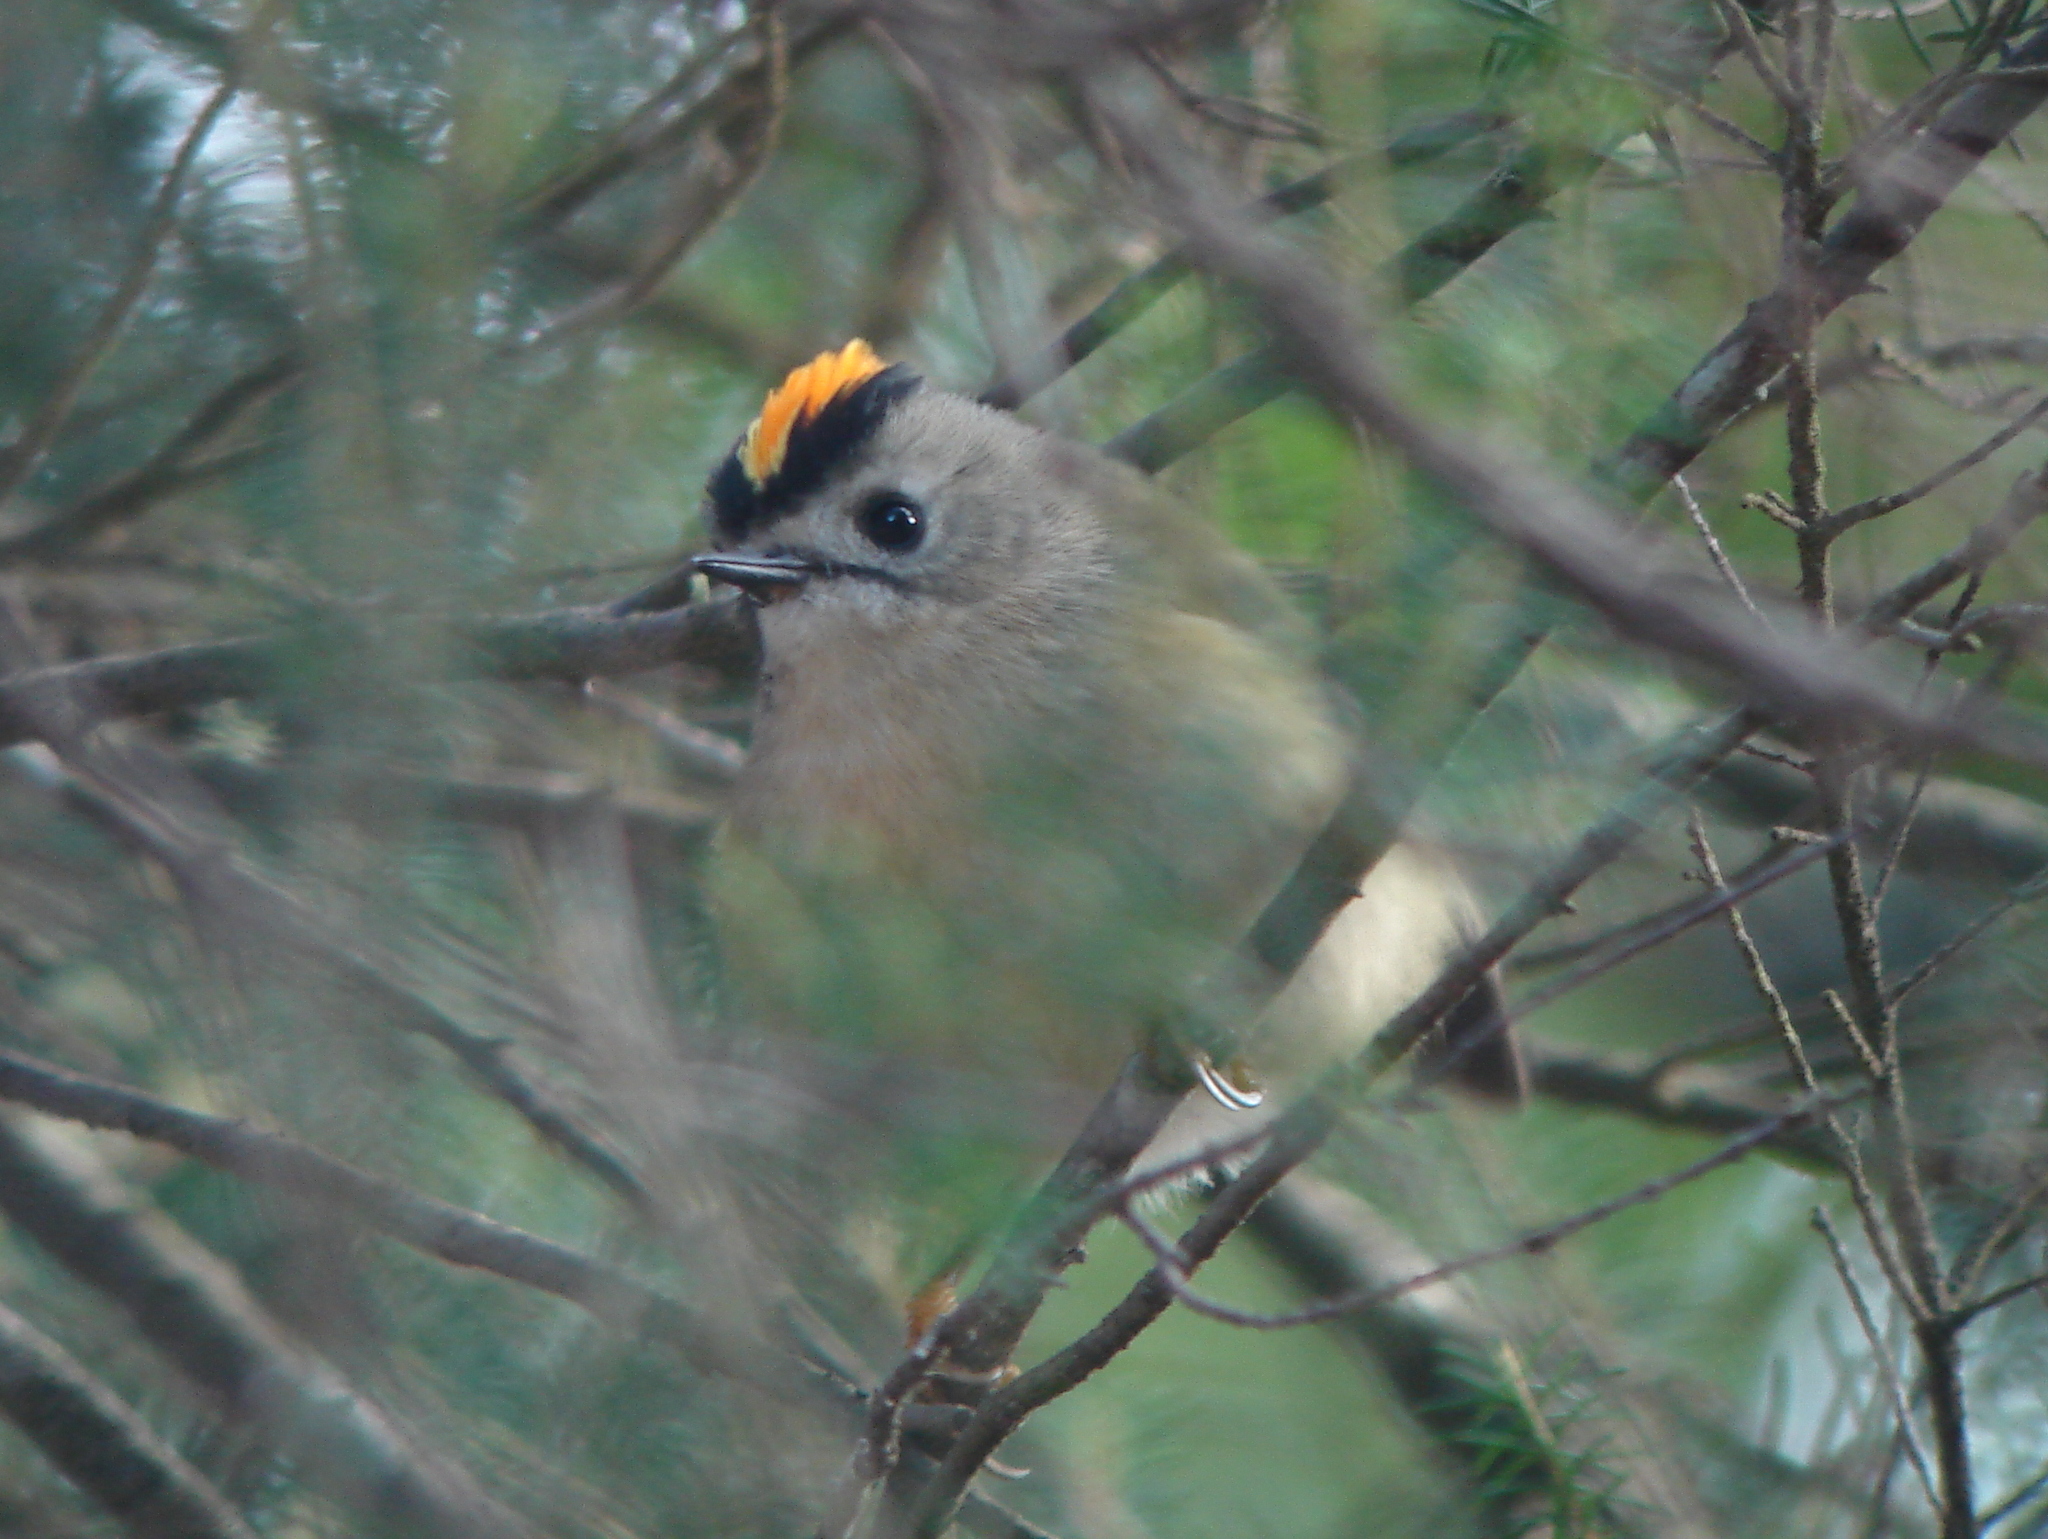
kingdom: Animalia
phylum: Chordata
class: Aves
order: Passeriformes
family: Regulidae
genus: Regulus
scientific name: Regulus regulus
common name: Goldcrest
